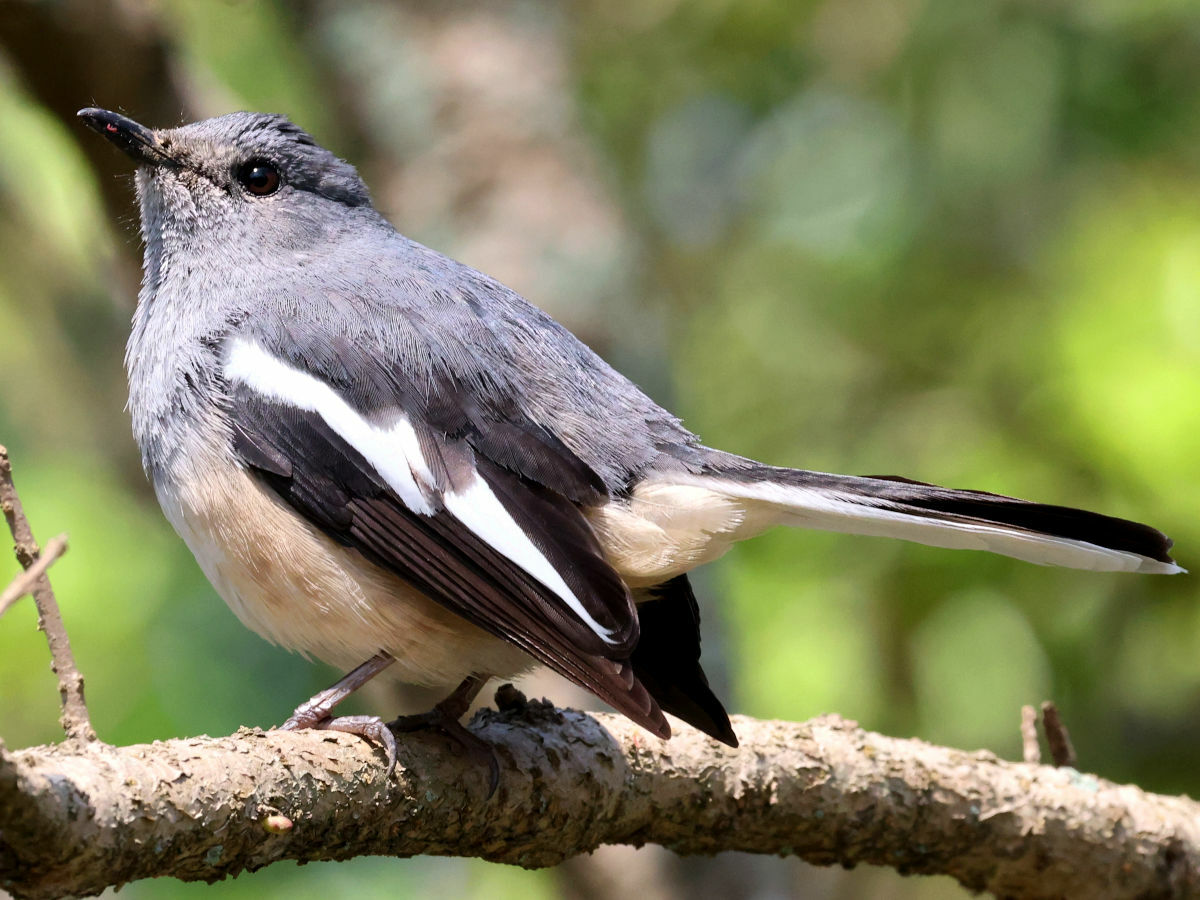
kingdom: Animalia
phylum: Chordata
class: Aves
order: Passeriformes
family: Muscicapidae
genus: Copsychus
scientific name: Copsychus saularis
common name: Oriental magpie-robin
